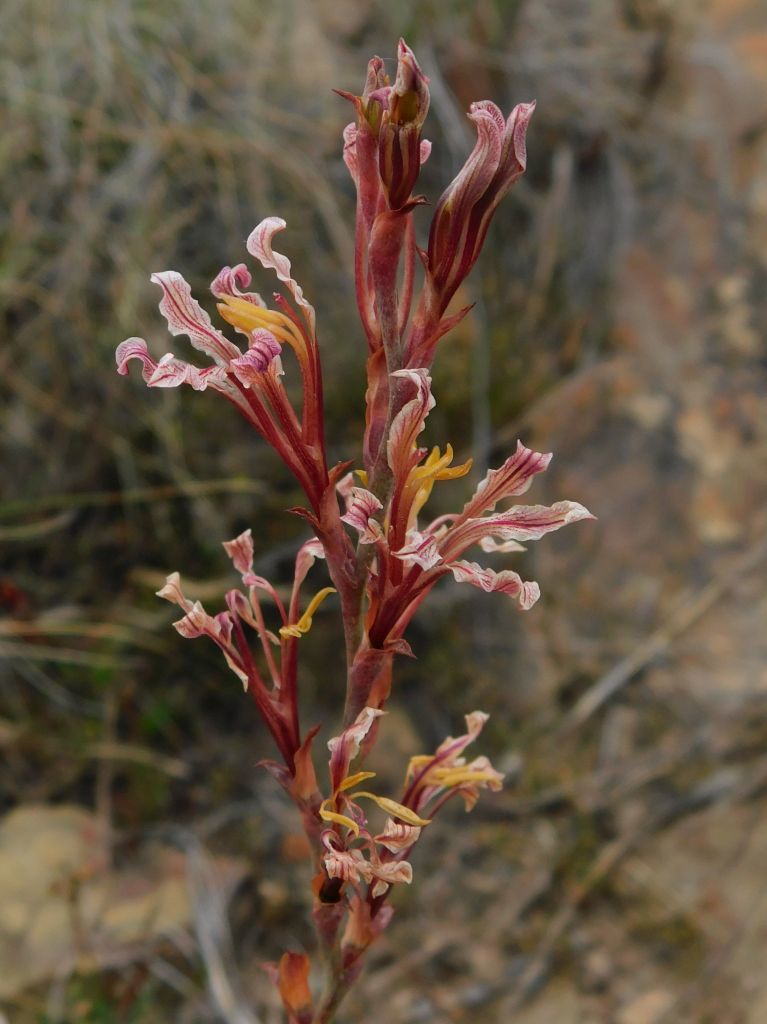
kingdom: Plantae
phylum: Tracheophyta
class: Liliopsida
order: Asparagales
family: Iridaceae
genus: Tritoniopsis
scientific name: Tritoniopsis elongata
